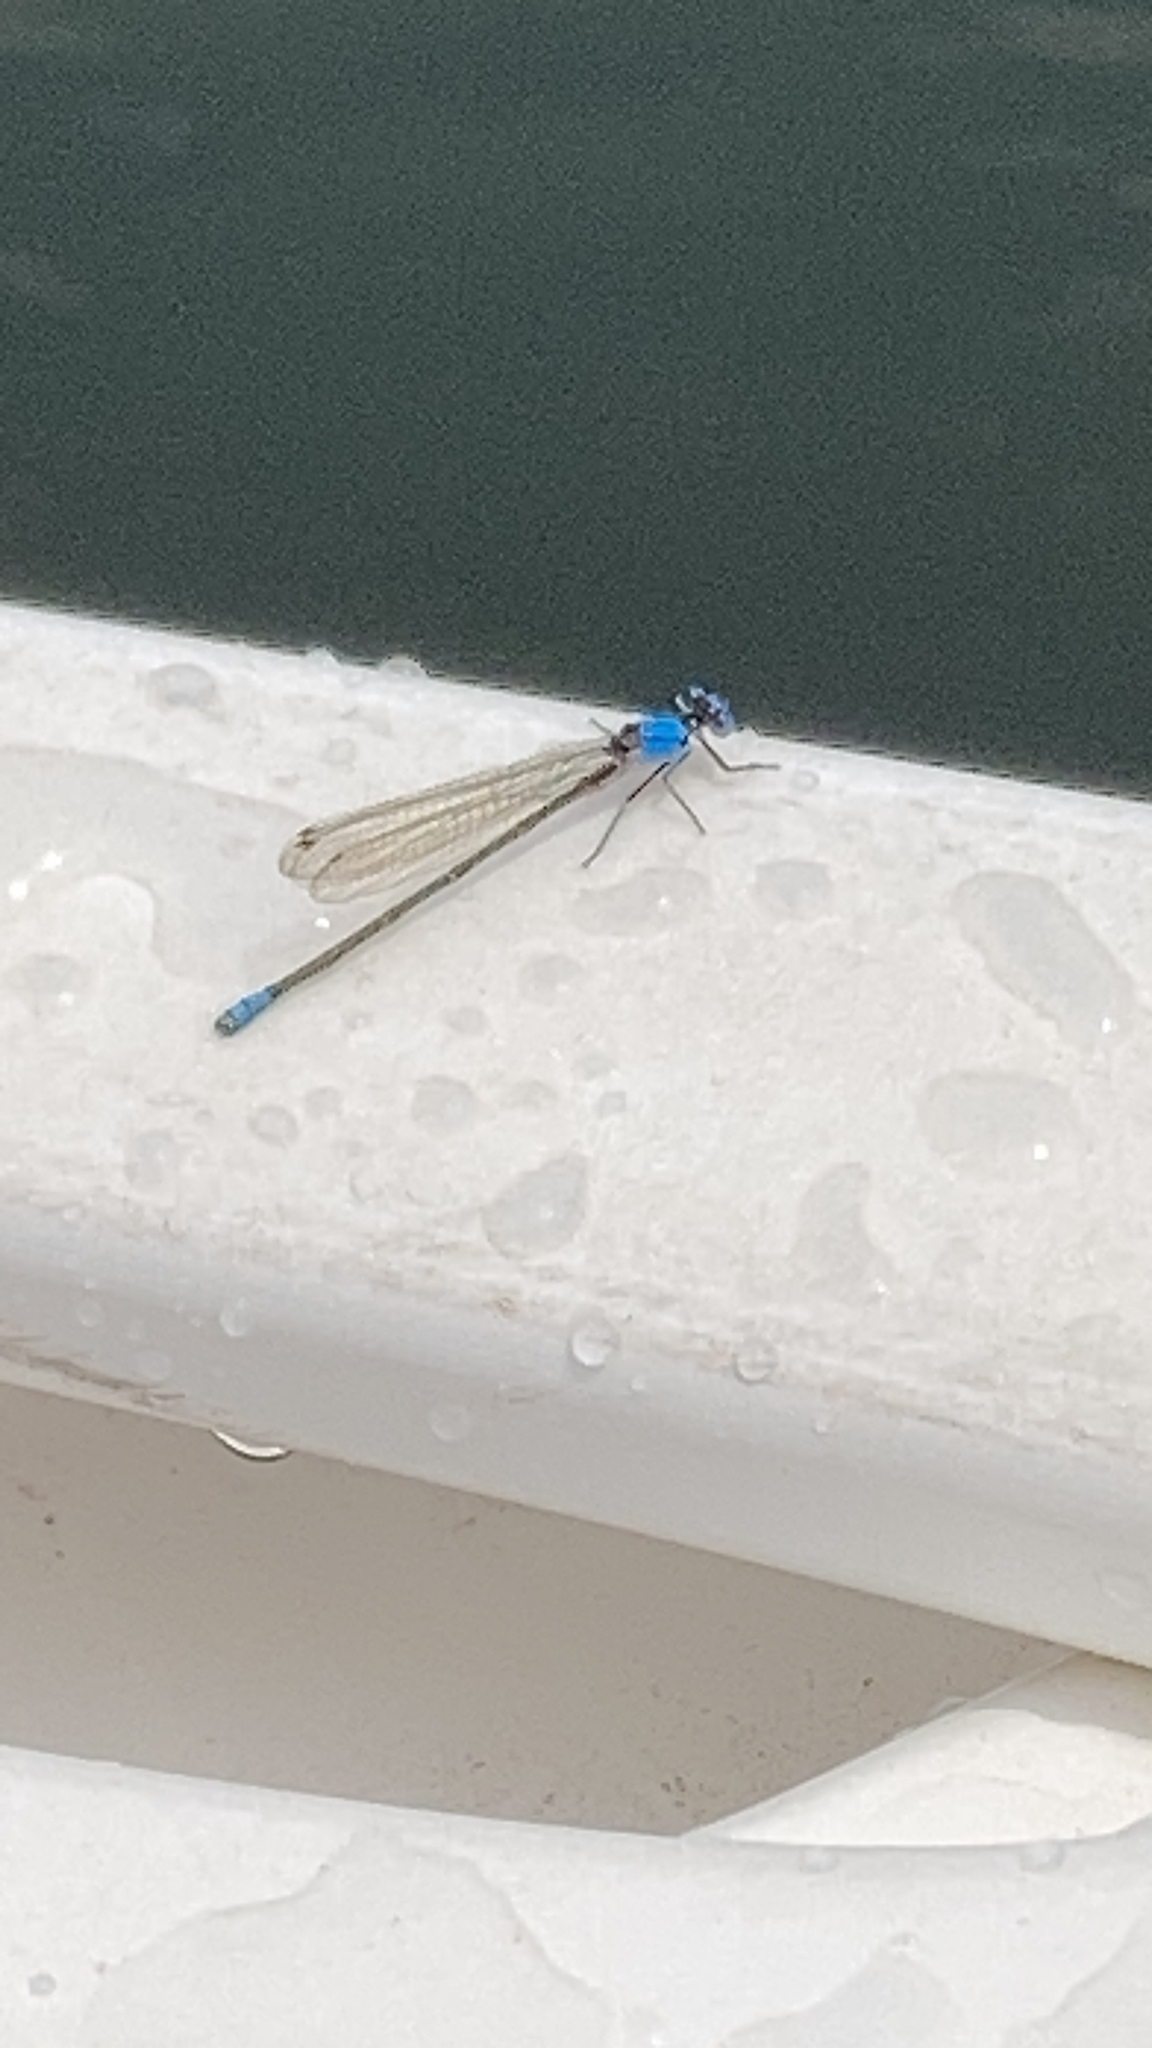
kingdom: Animalia
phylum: Arthropoda
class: Insecta
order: Odonata
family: Coenagrionidae
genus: Argia
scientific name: Argia apicalis
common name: Blue-fronted dancer
